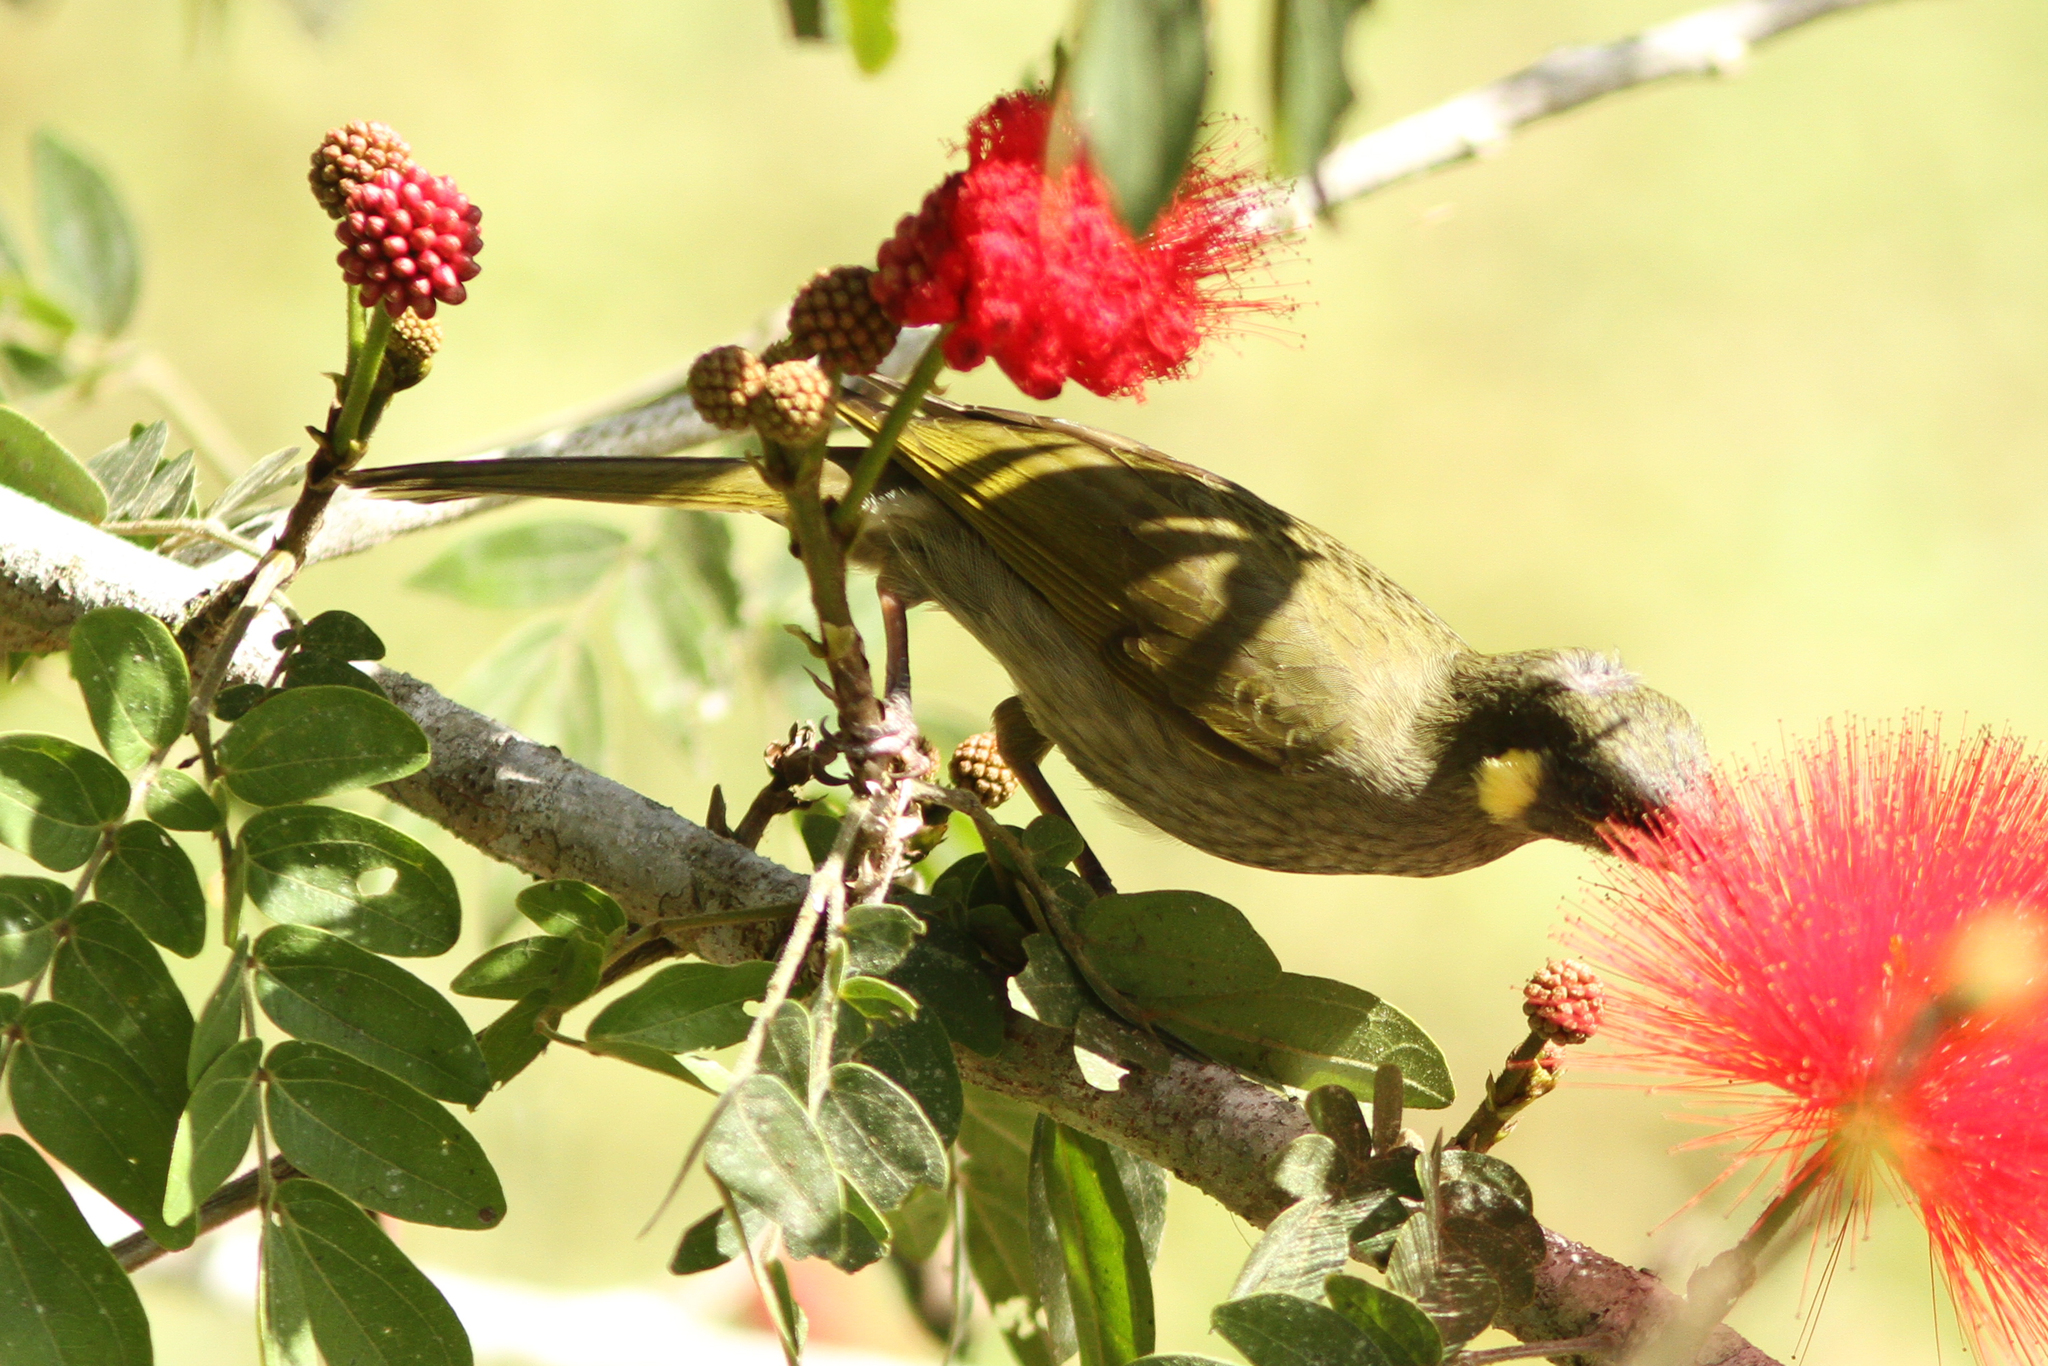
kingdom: Animalia
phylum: Chordata
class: Aves
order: Passeriformes
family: Meliphagidae
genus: Microptilotis
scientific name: Microptilotis imitatrix
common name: Cryptic honeyeater
